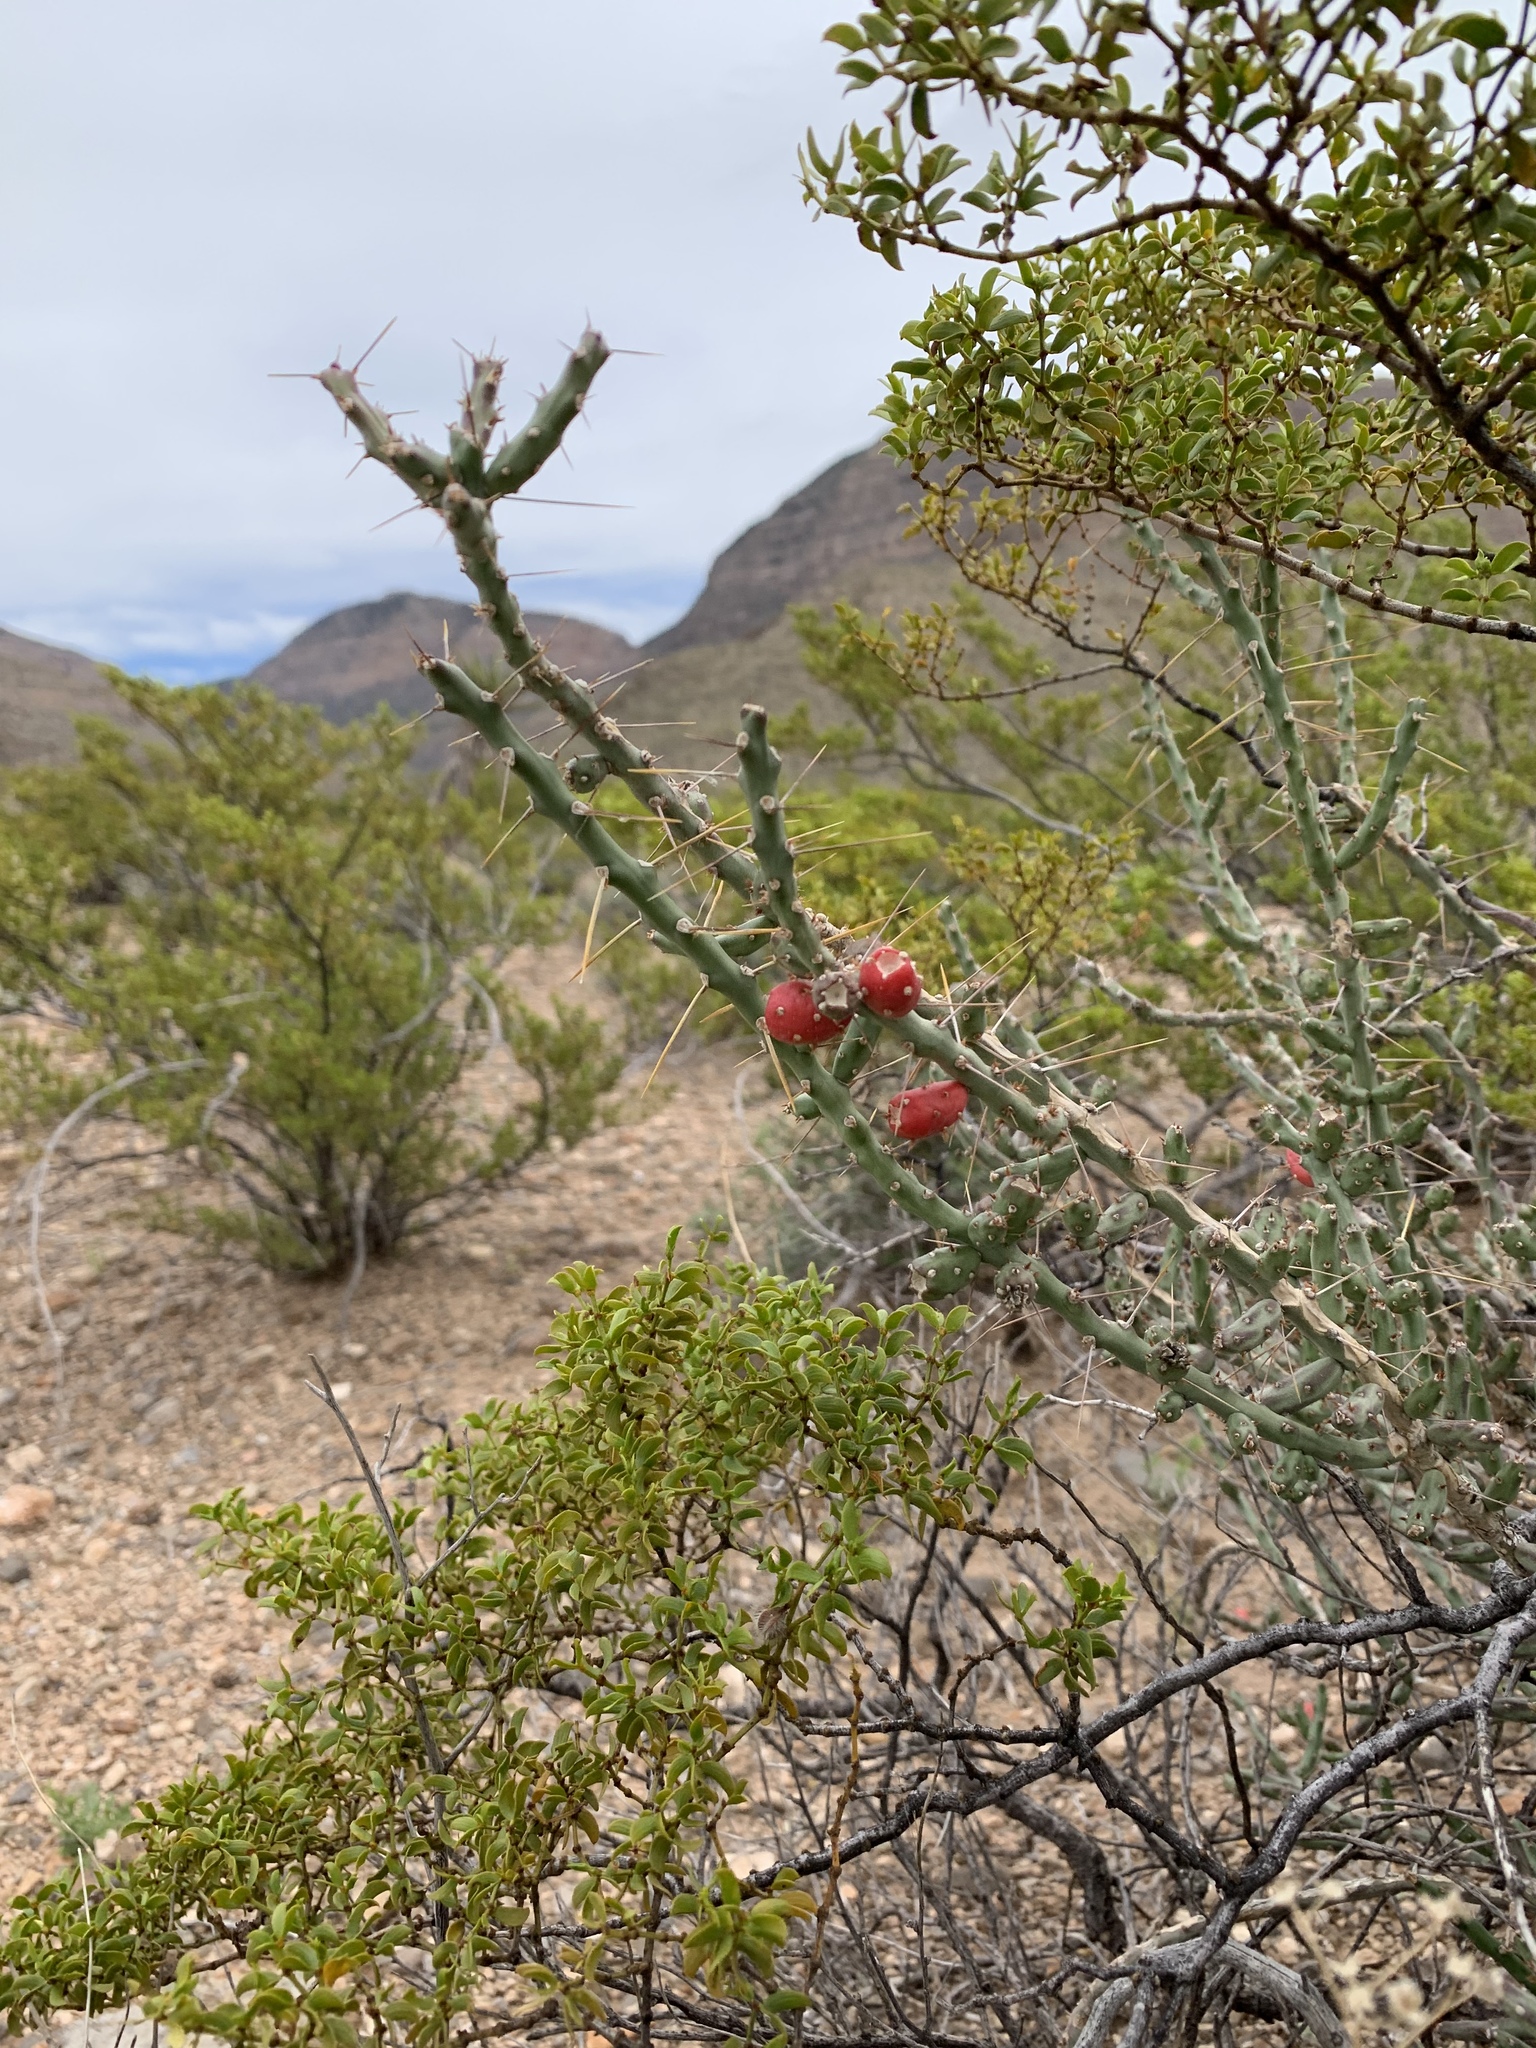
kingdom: Plantae
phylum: Tracheophyta
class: Magnoliopsida
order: Caryophyllales
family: Cactaceae
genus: Cylindropuntia
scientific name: Cylindropuntia leptocaulis
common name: Christmas cactus
